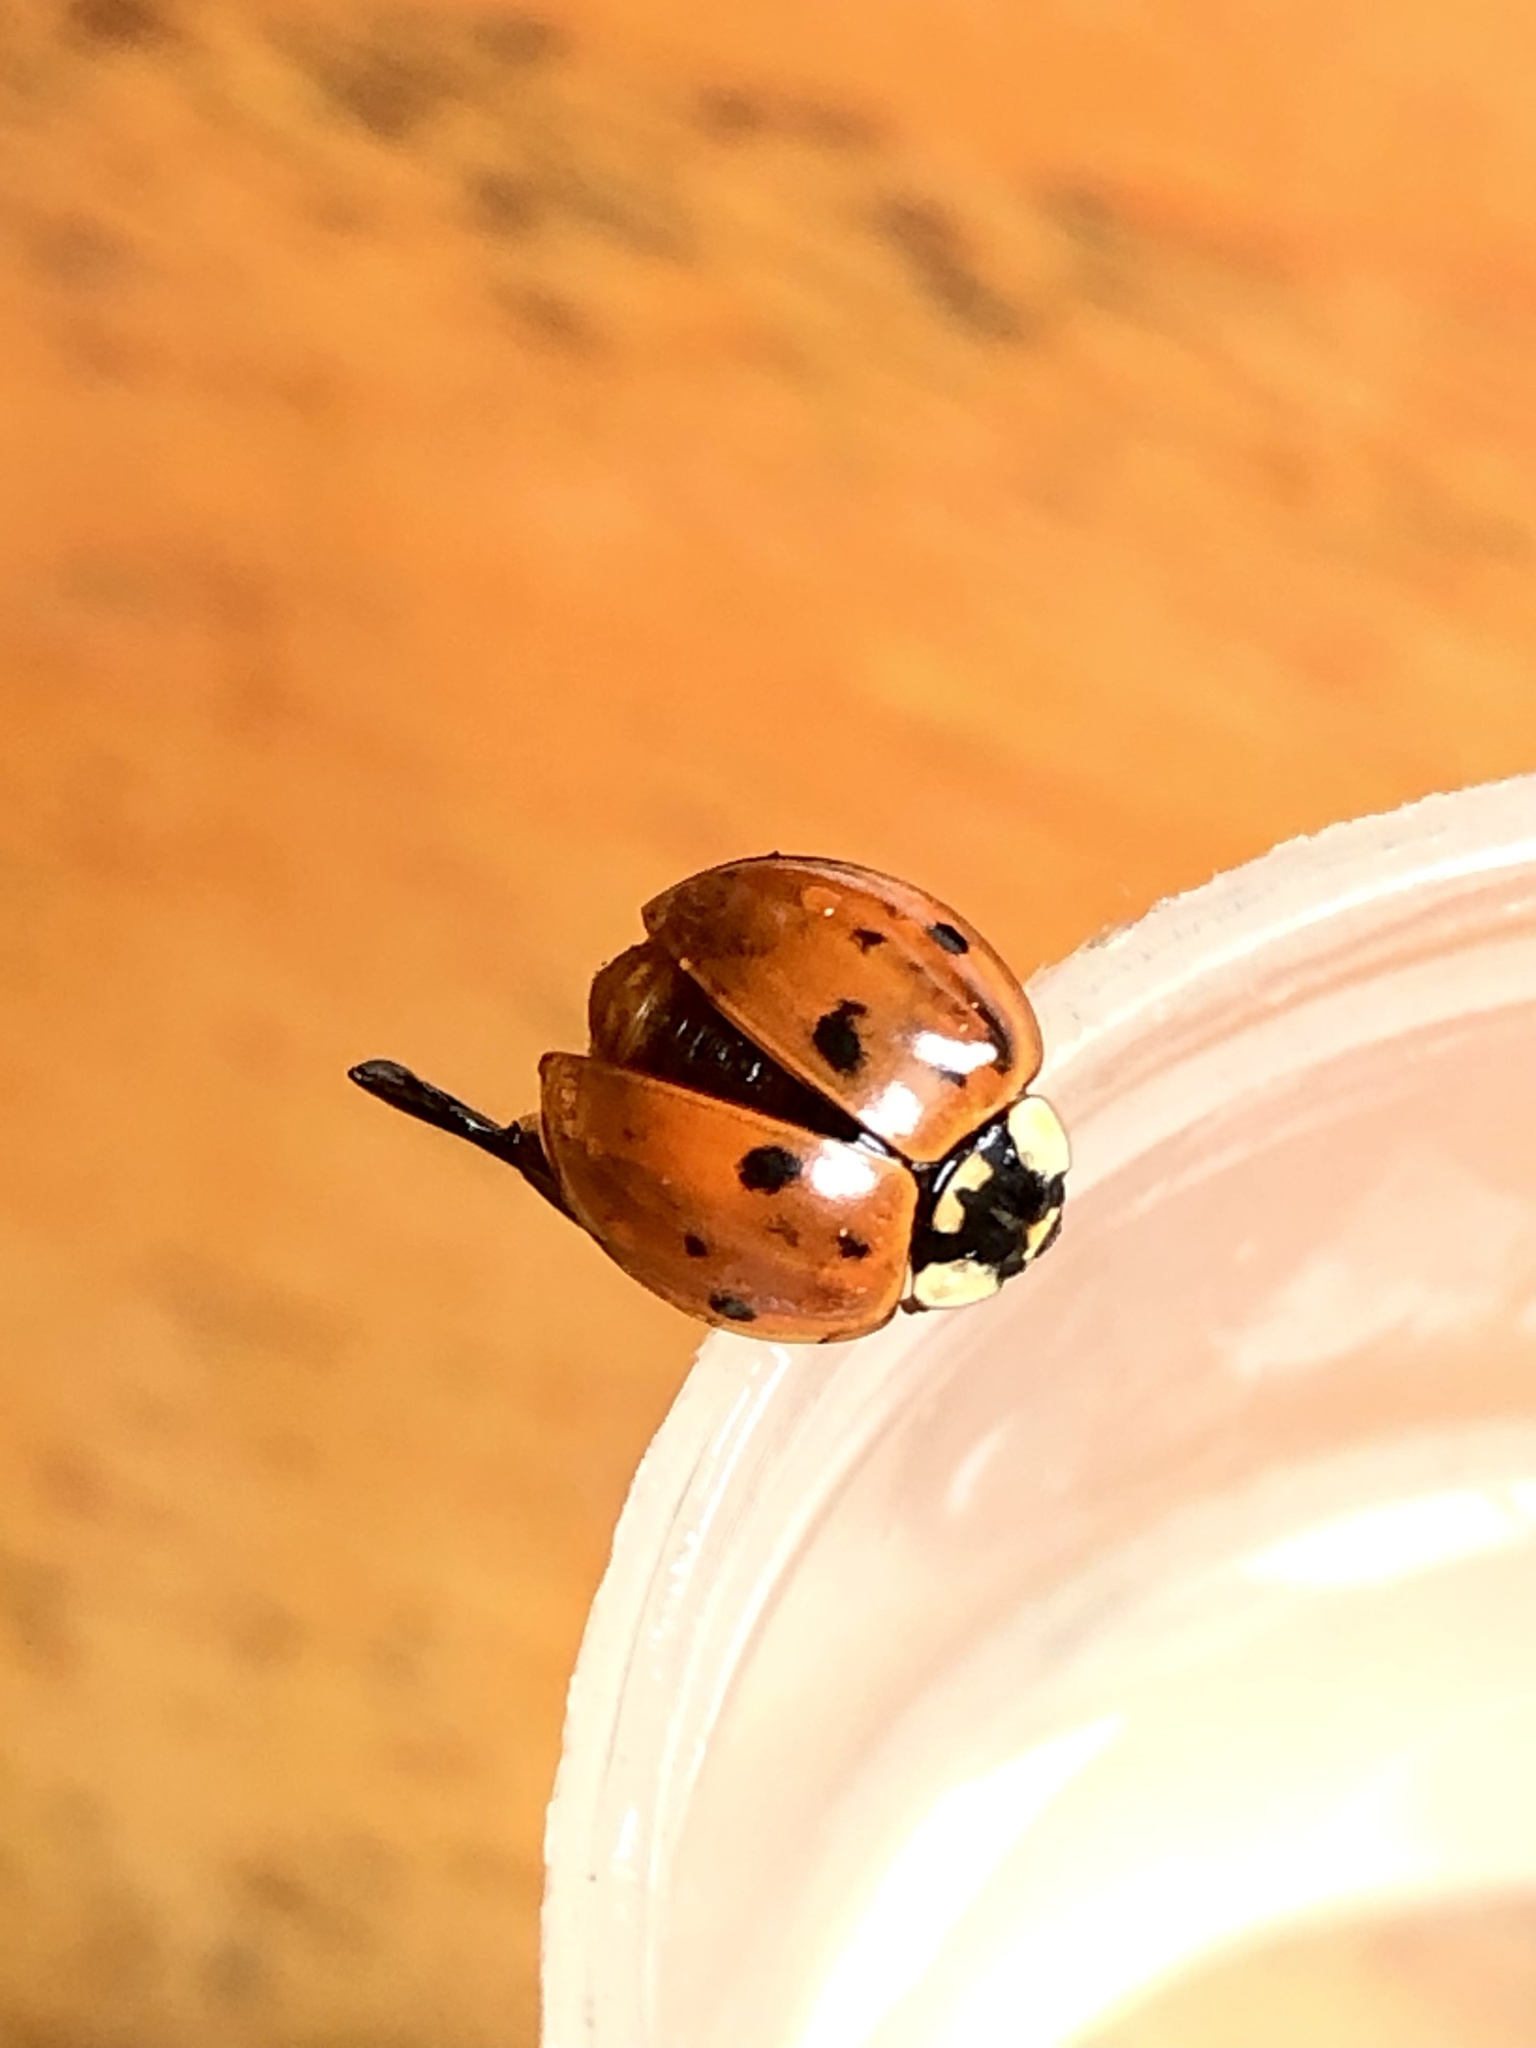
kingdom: Animalia
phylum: Arthropoda
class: Insecta
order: Coleoptera
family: Coccinellidae
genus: Harmonia
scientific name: Harmonia axyridis
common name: Harlequin ladybird
